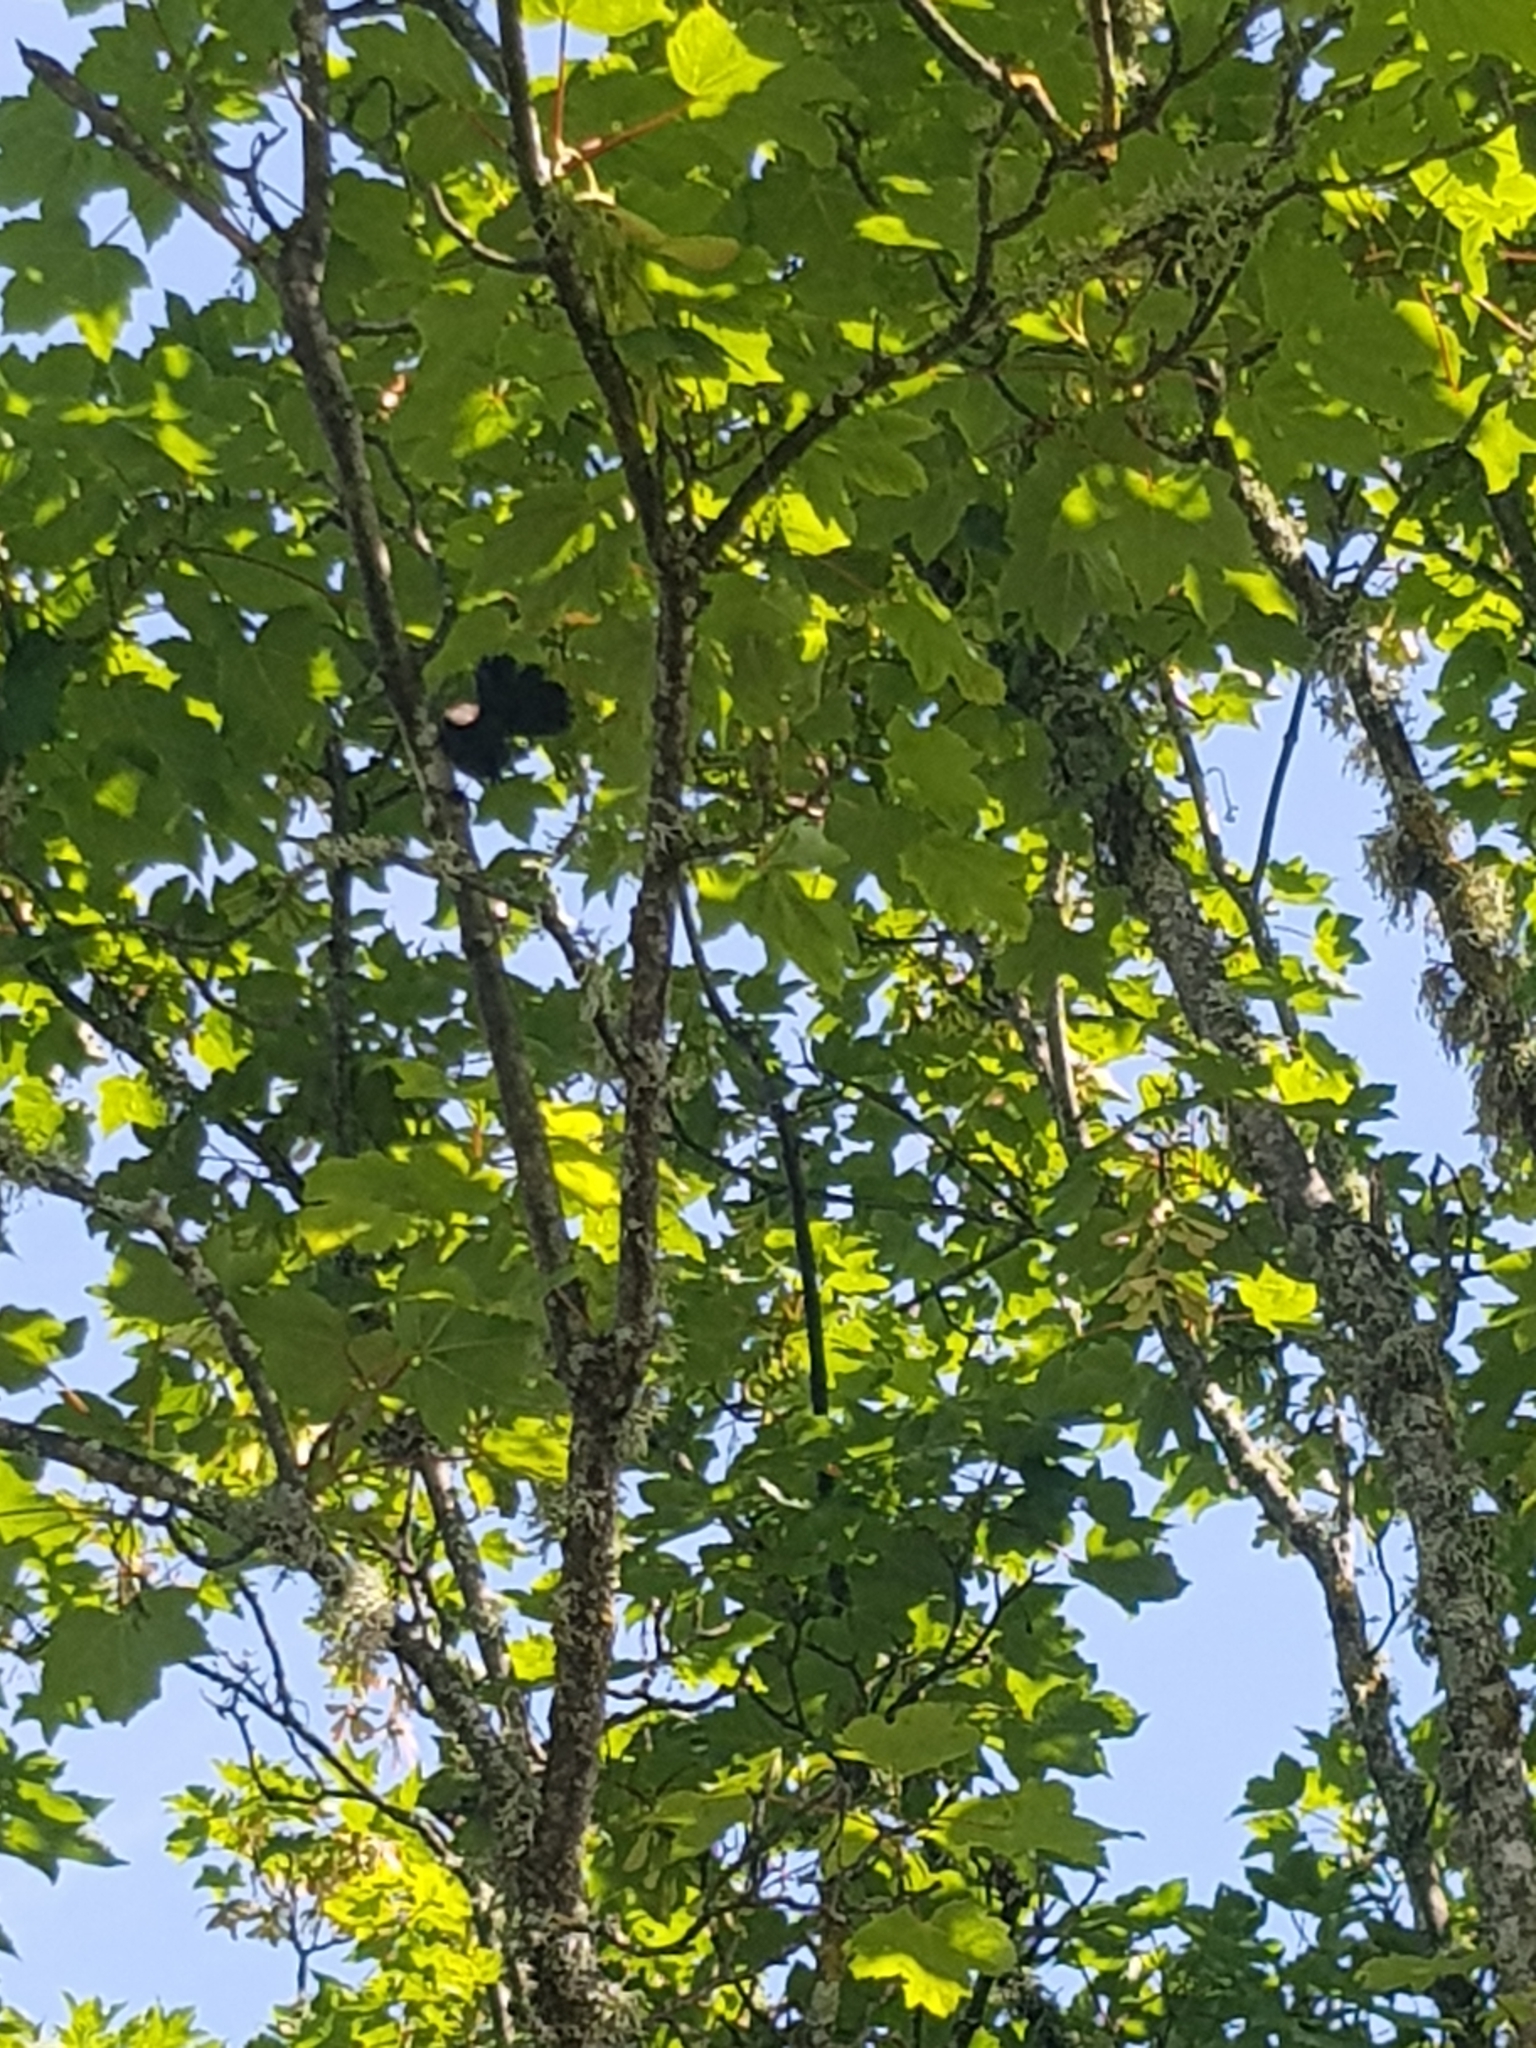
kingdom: Animalia
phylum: Chordata
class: Aves
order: Passeriformes
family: Rhipiduridae
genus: Rhipidura
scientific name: Rhipidura fuliginosa
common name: New zealand fantail
